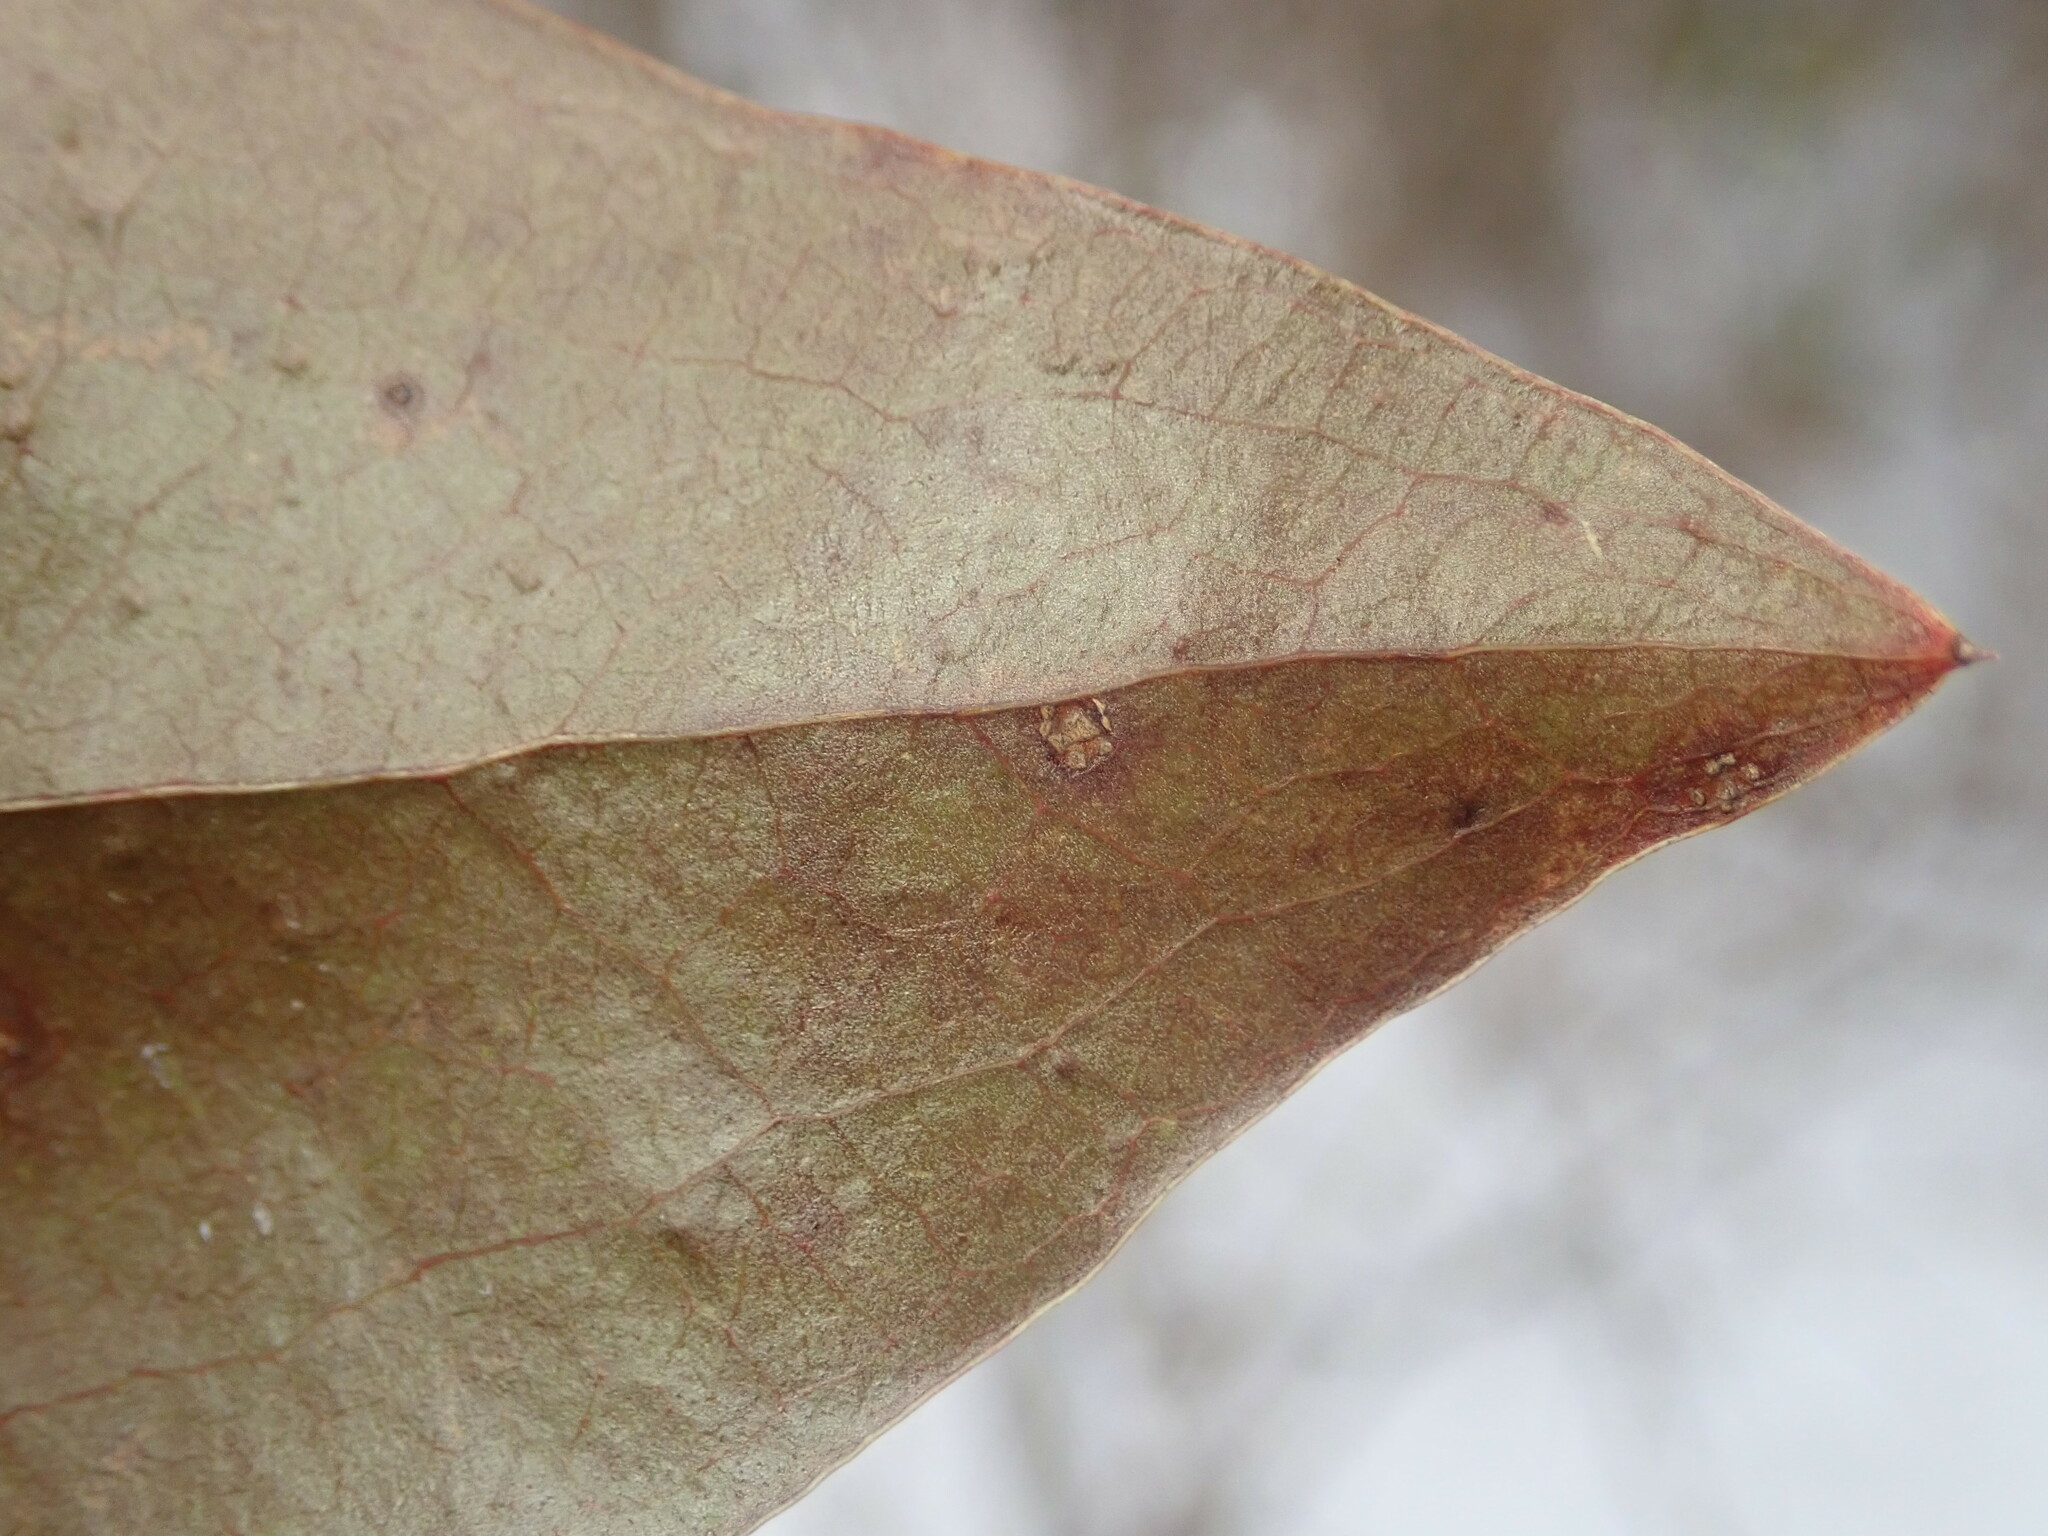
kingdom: Animalia
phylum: Arthropoda
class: Insecta
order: Lepidoptera
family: Gracillariidae
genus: Marmara
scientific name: Marmara smilacisella
